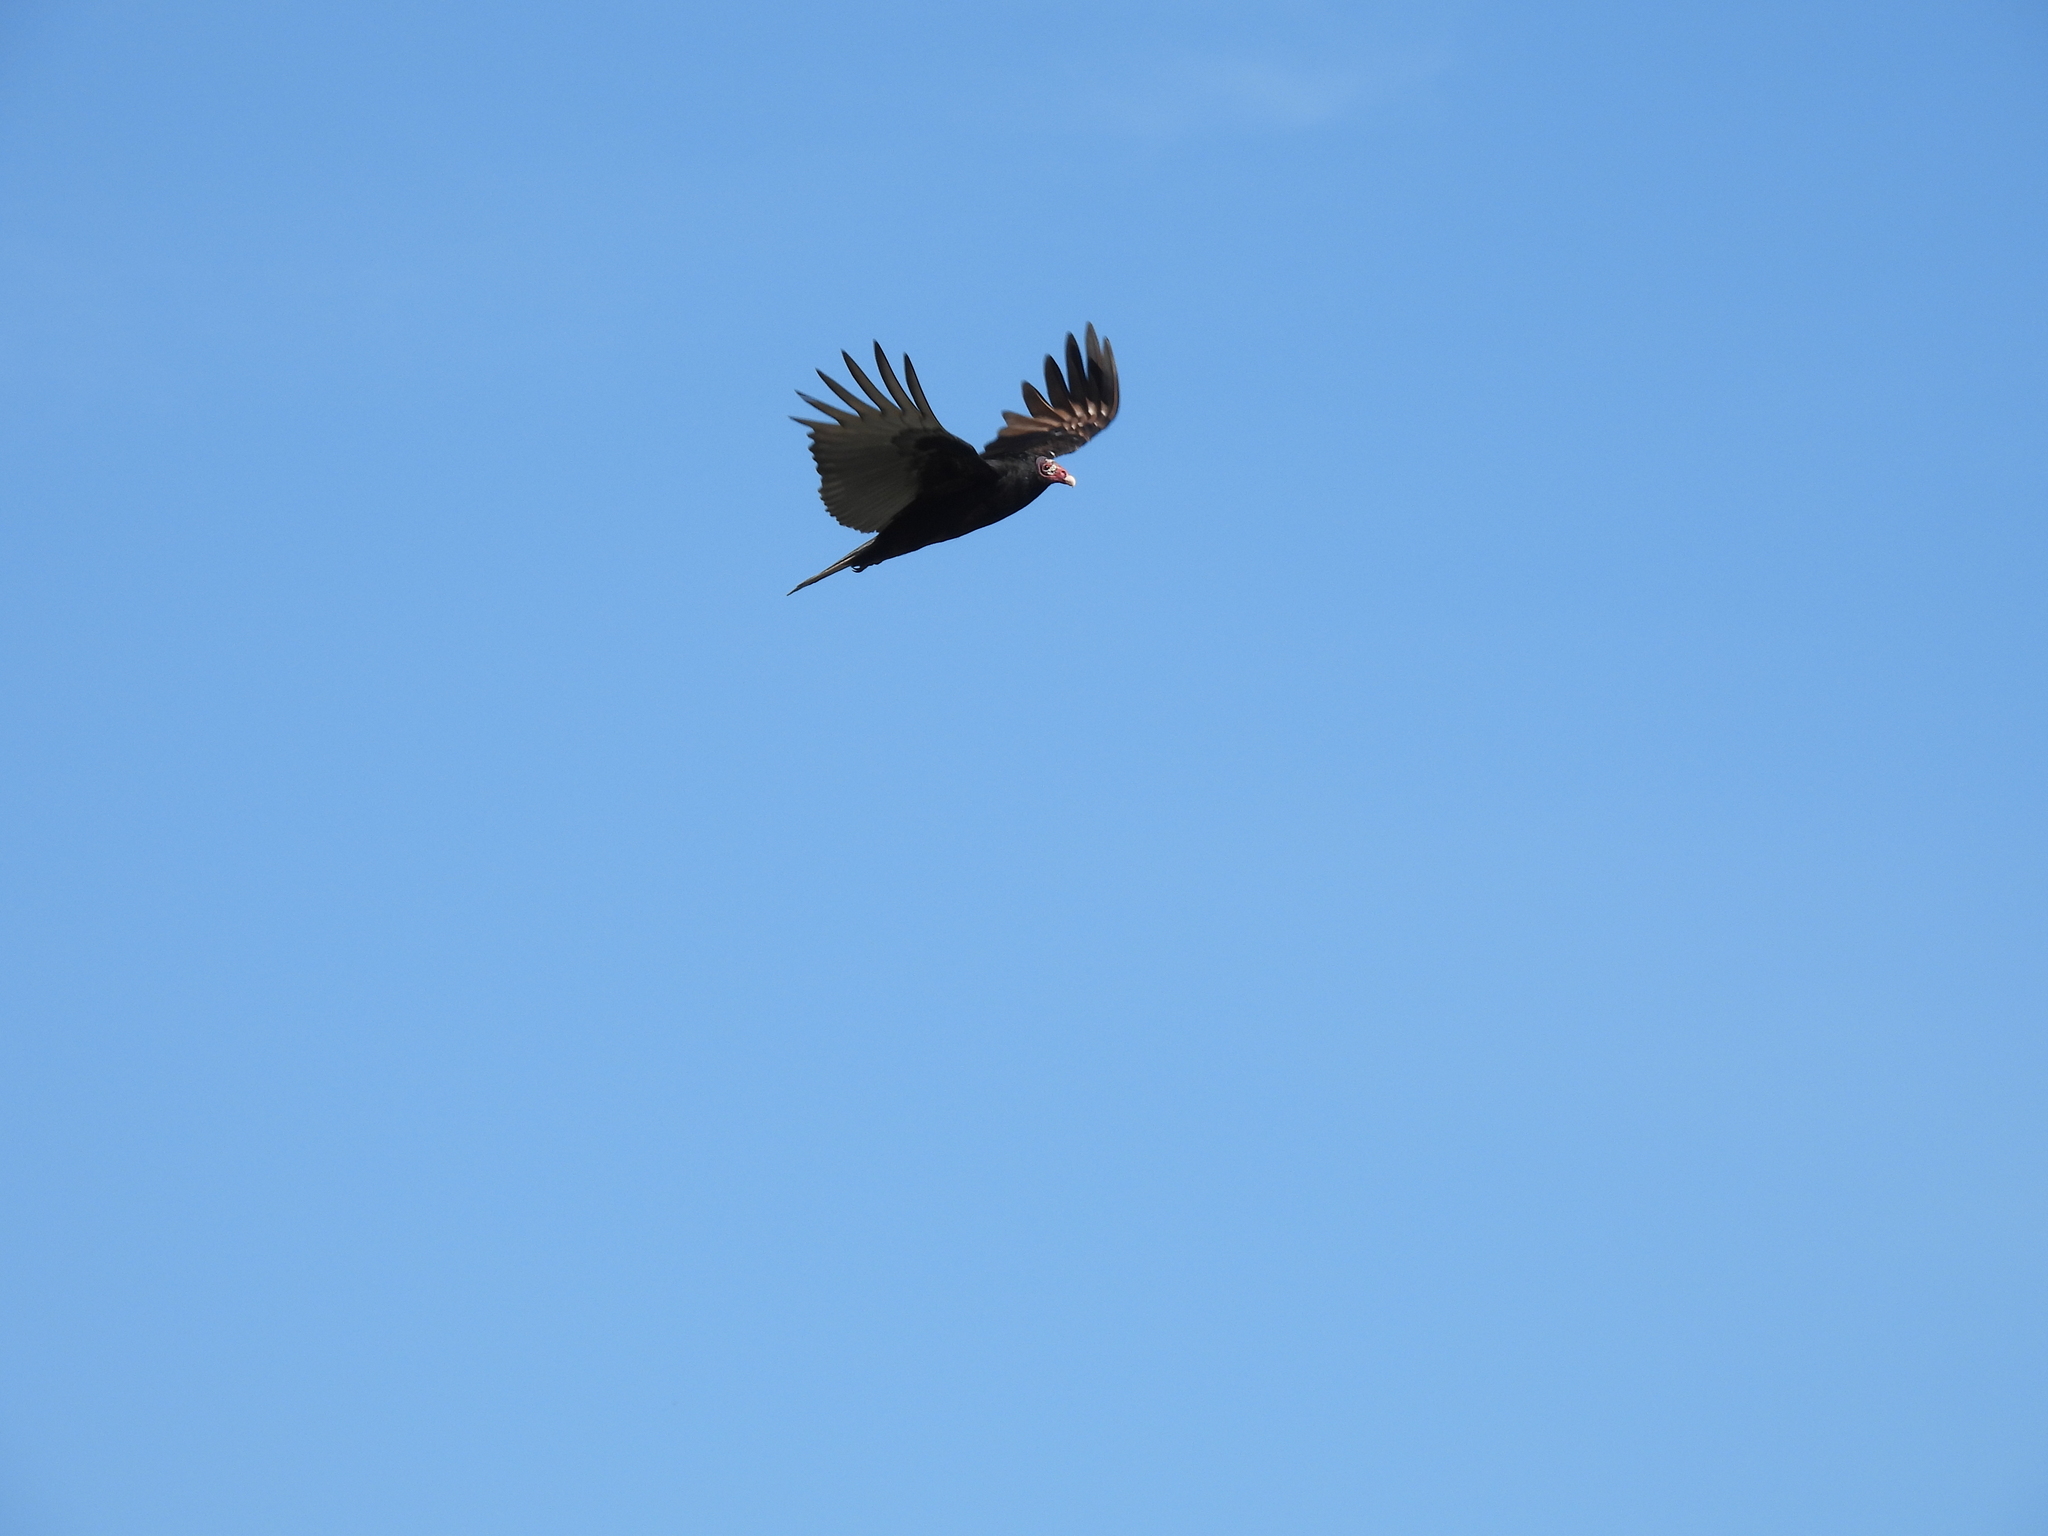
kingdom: Animalia
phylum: Chordata
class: Aves
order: Accipitriformes
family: Cathartidae
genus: Cathartes
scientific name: Cathartes aura
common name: Turkey vulture
